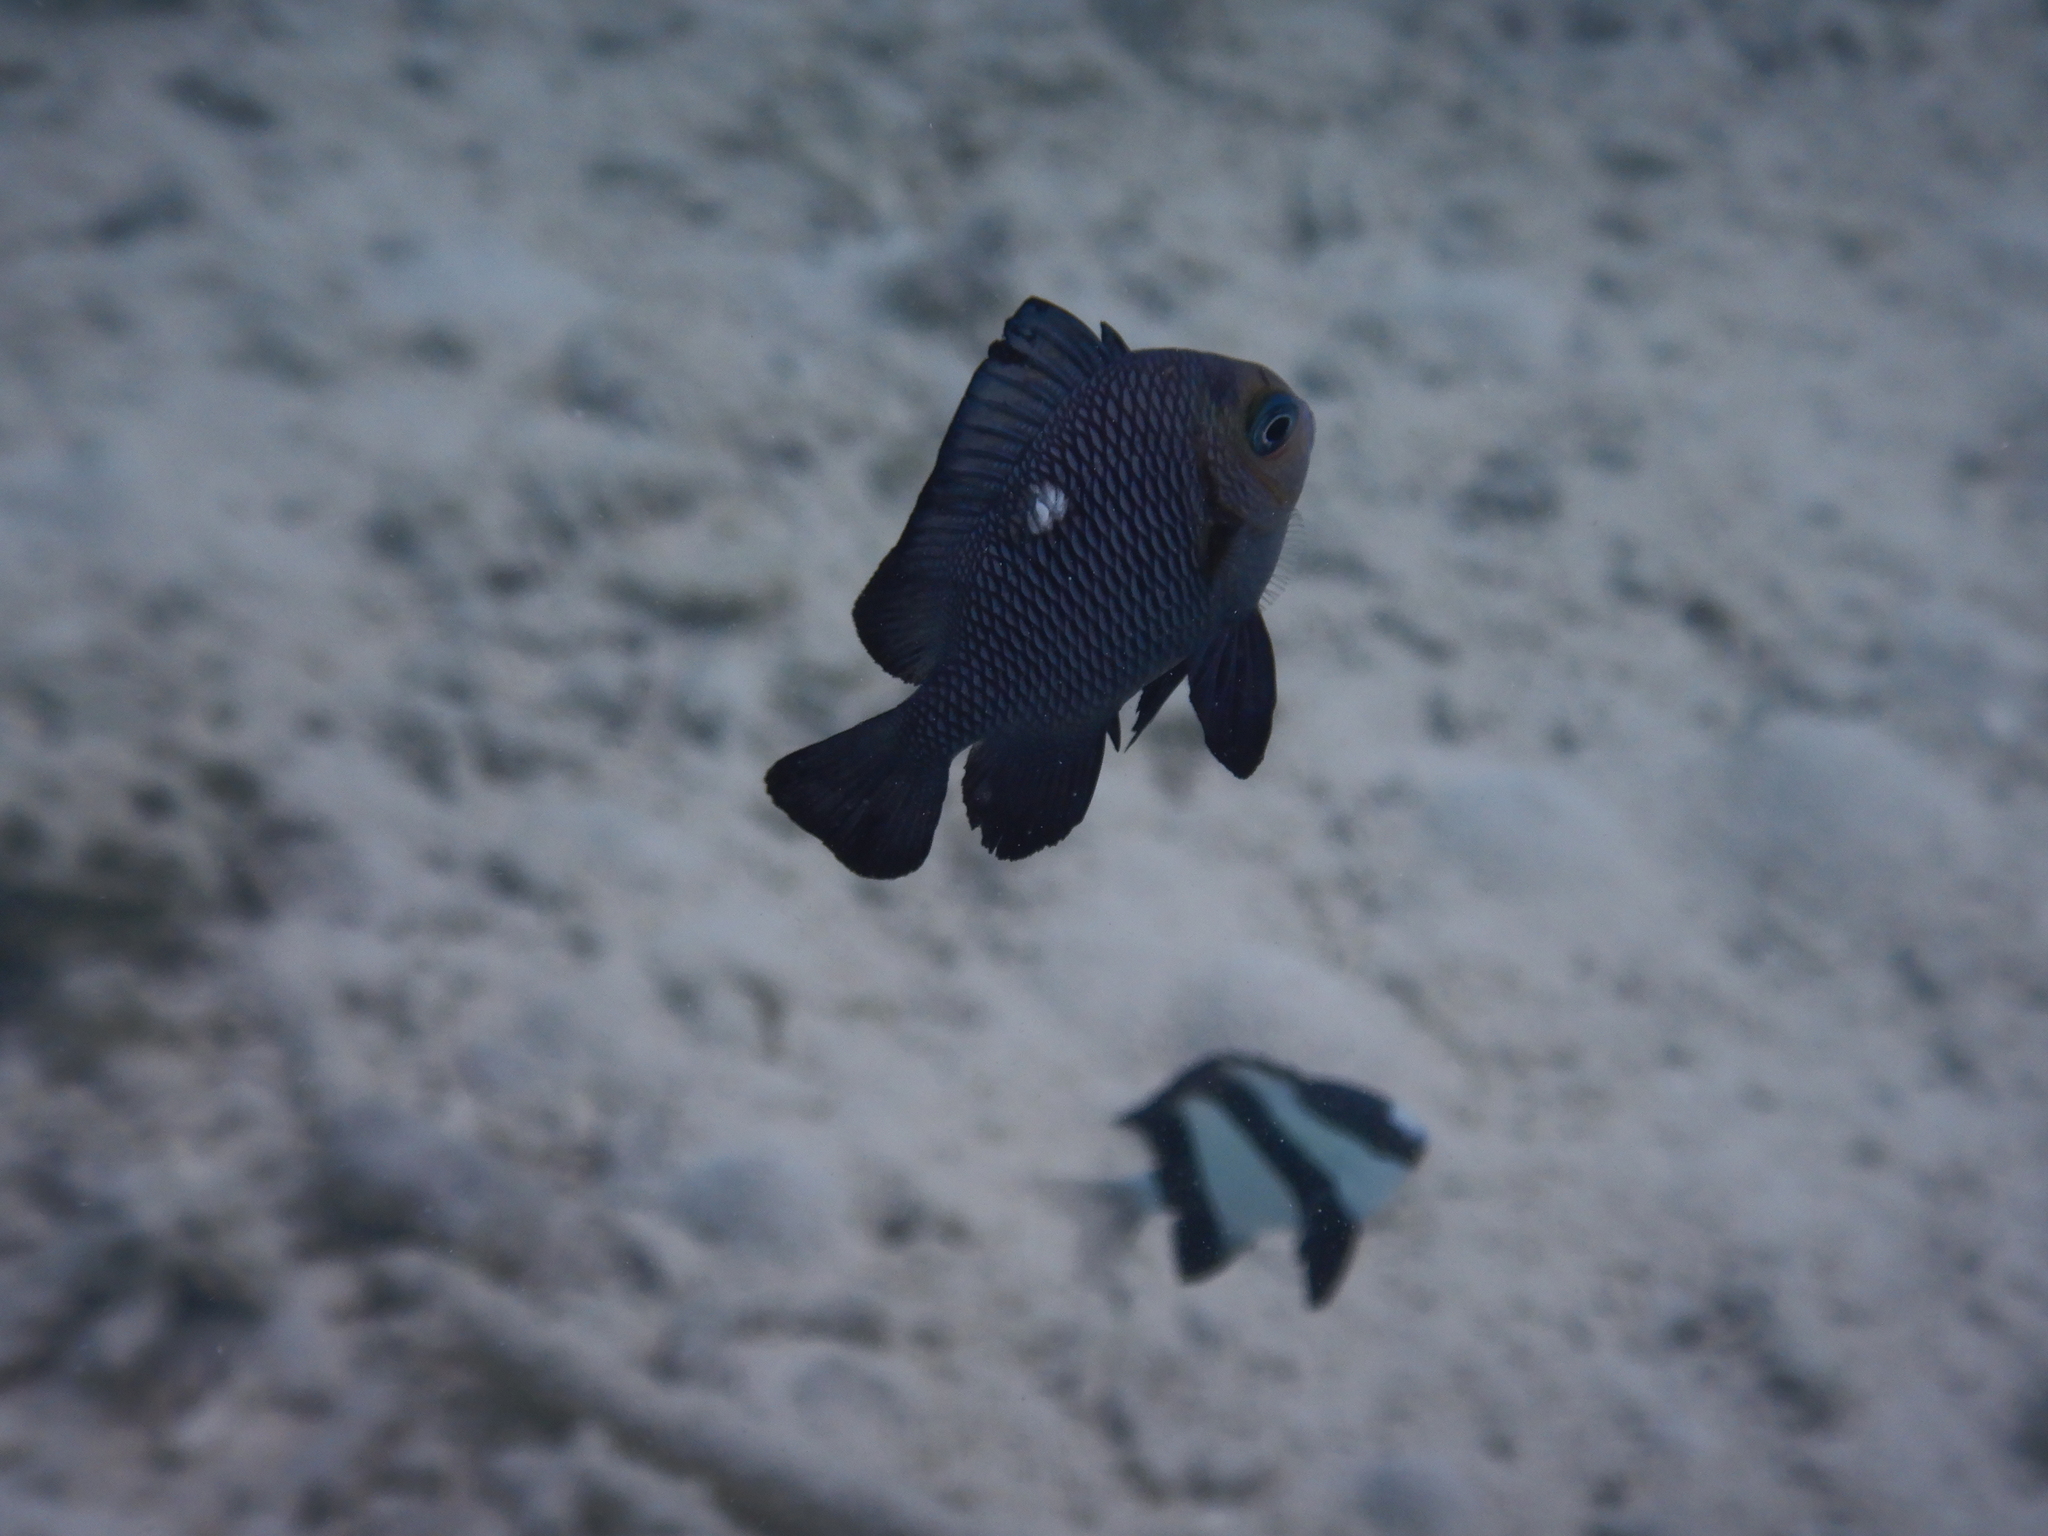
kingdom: Animalia
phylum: Chordata
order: Perciformes
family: Pomacentridae
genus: Dascyllus
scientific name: Dascyllus trimaculatus
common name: Threespot dascyllus
